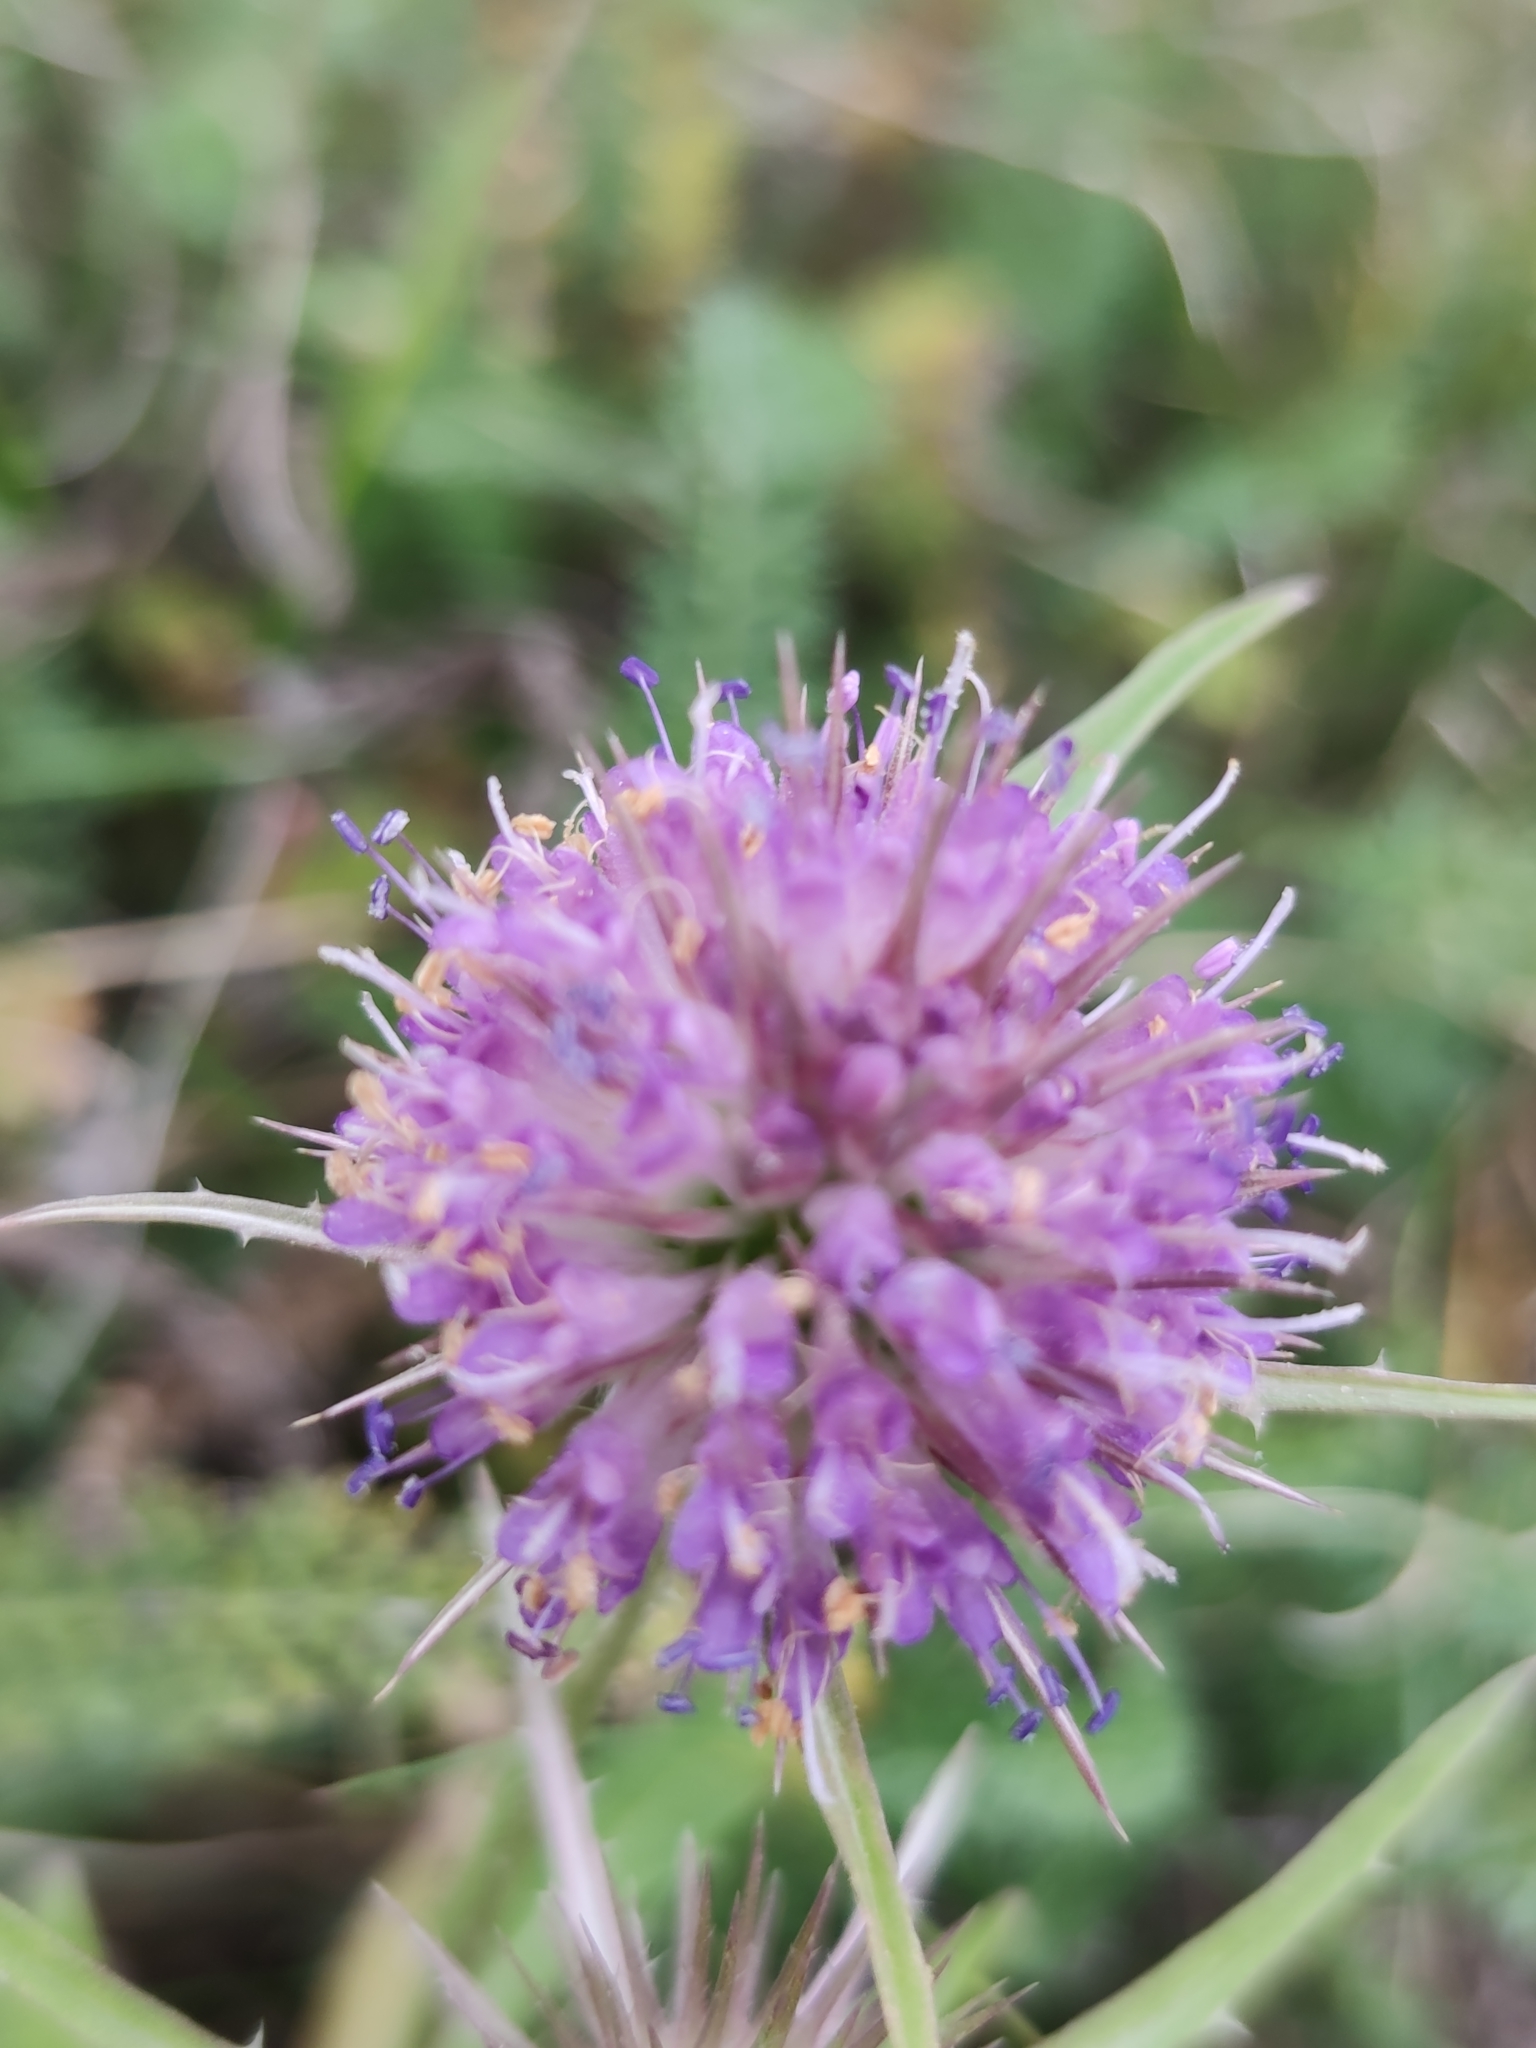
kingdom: Plantae
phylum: Tracheophyta
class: Magnoliopsida
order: Dipsacales
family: Caprifoliaceae
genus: Dipsacus
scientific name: Dipsacus fullonum
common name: Teasel
